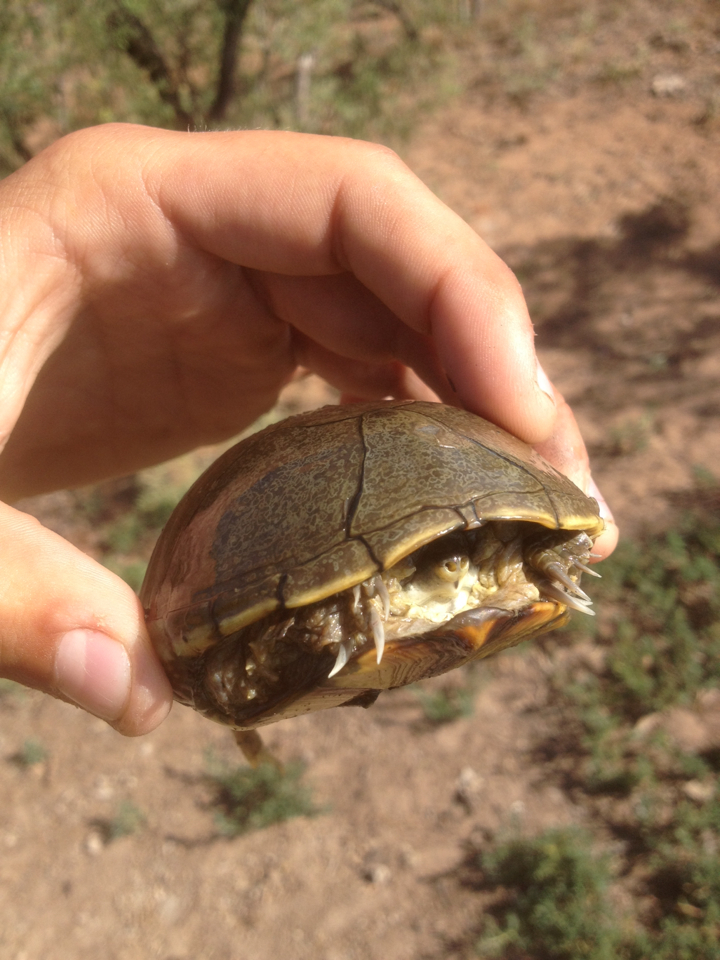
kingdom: Animalia
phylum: Chordata
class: Testudines
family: Kinosternidae
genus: Kinosternon
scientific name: Kinosternon flavescens
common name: Yellow mud turtle
